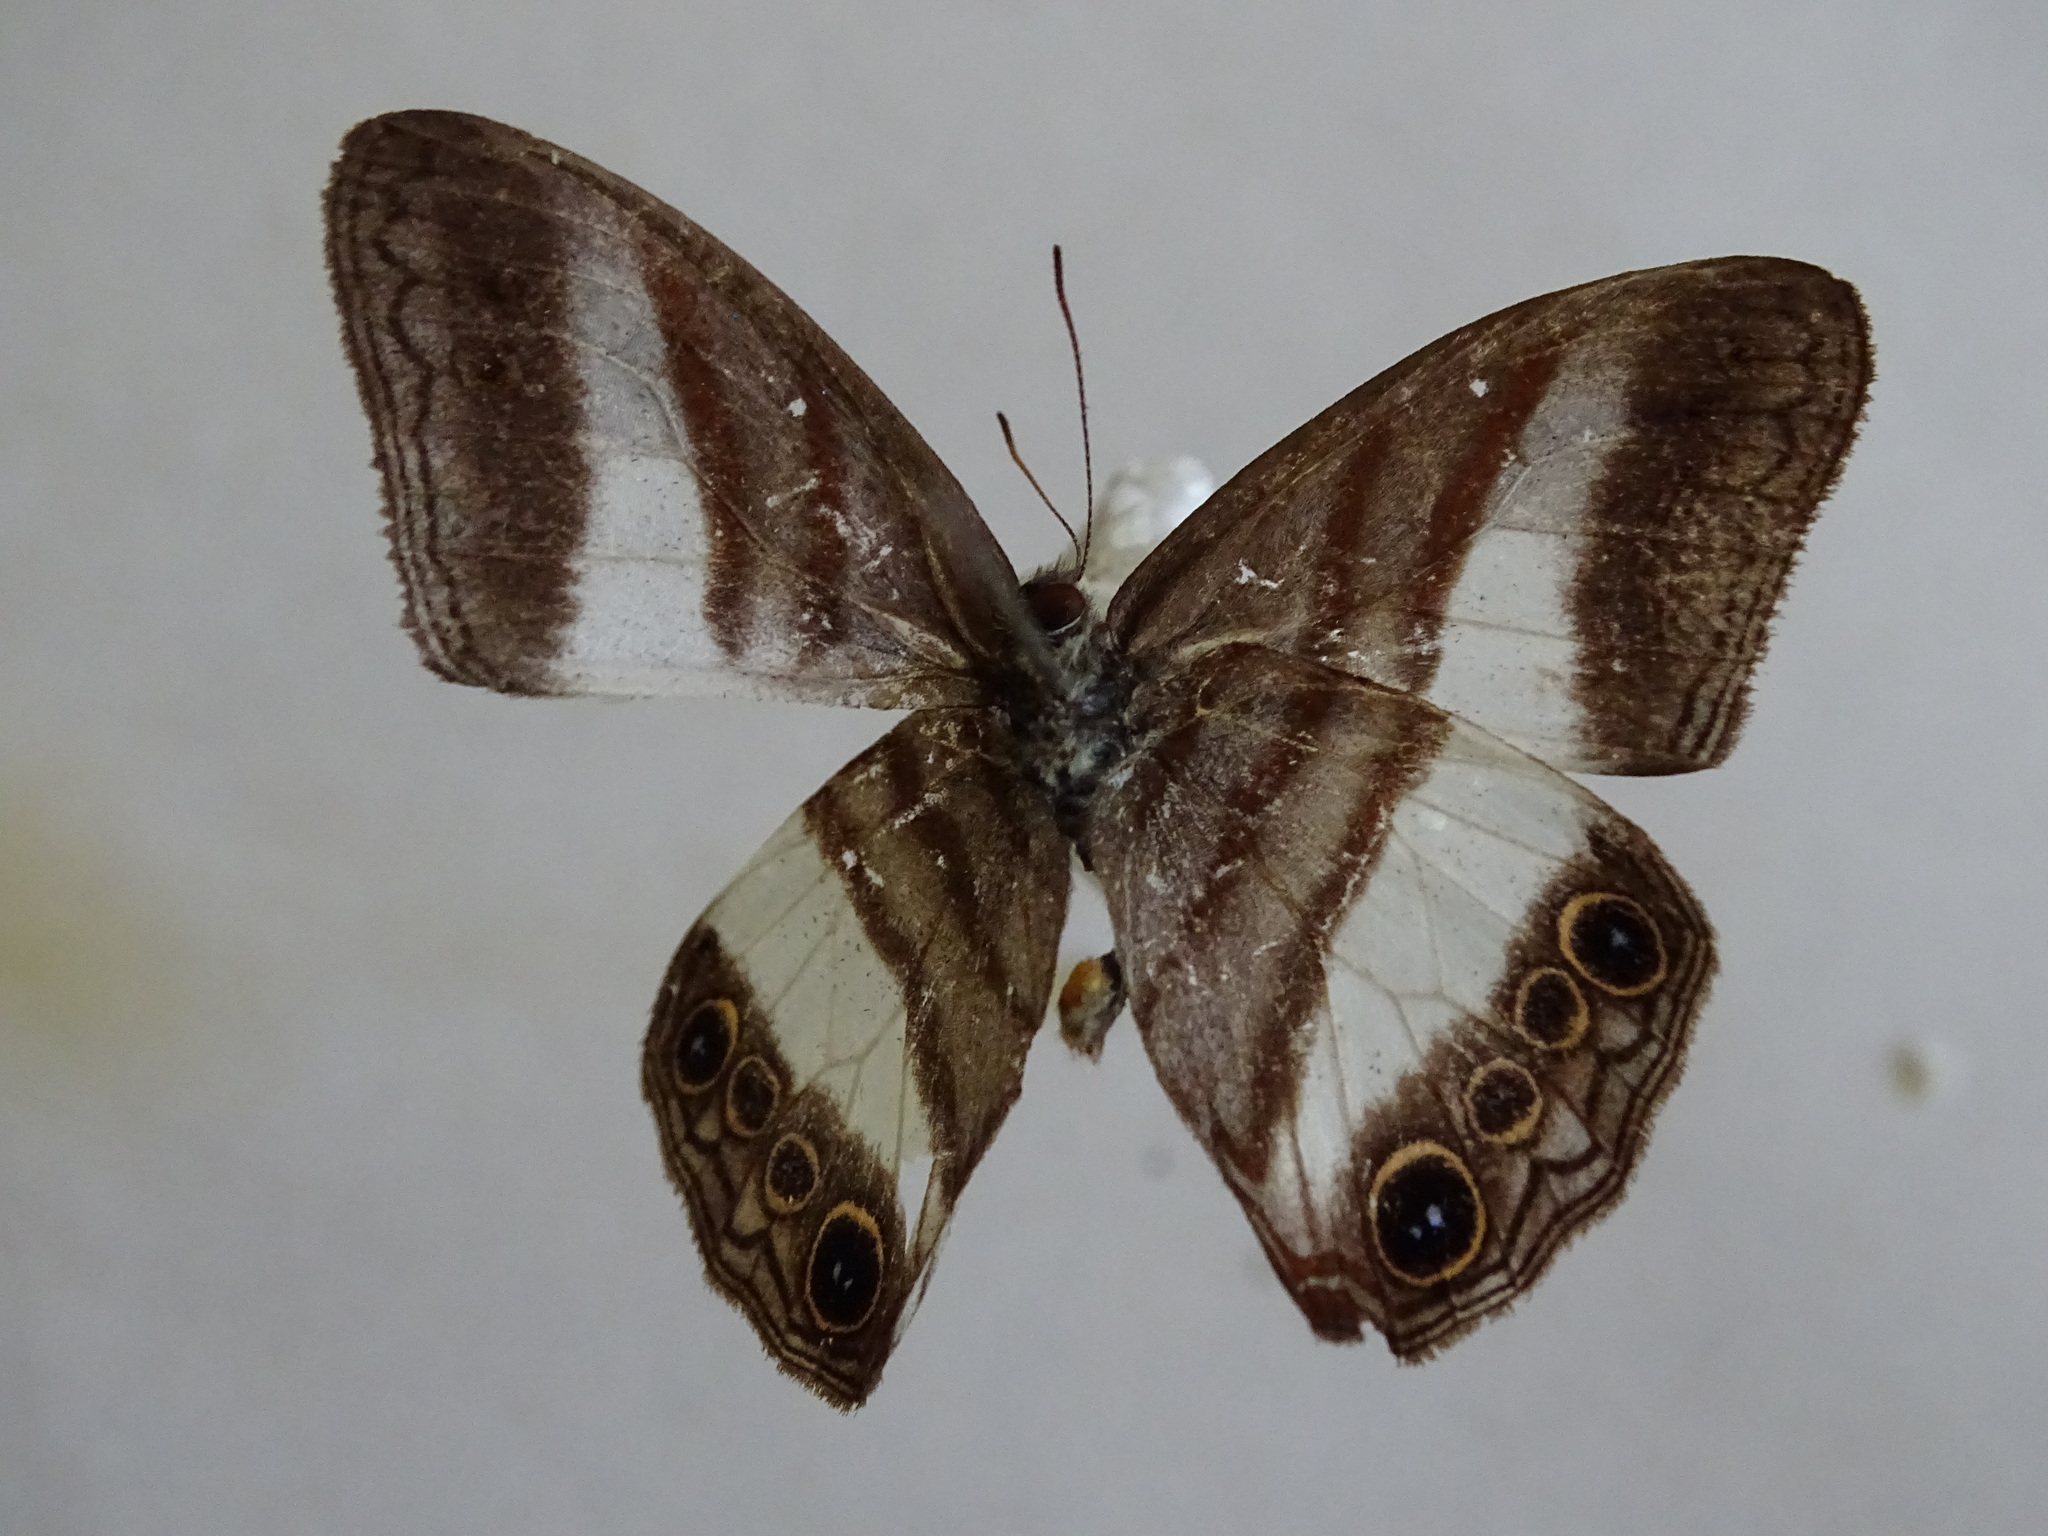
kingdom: Animalia
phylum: Arthropoda
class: Insecta
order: Lepidoptera
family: Nymphalidae
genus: Pareuptychia
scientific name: Pareuptychia metaleuca
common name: White-banded satyr
